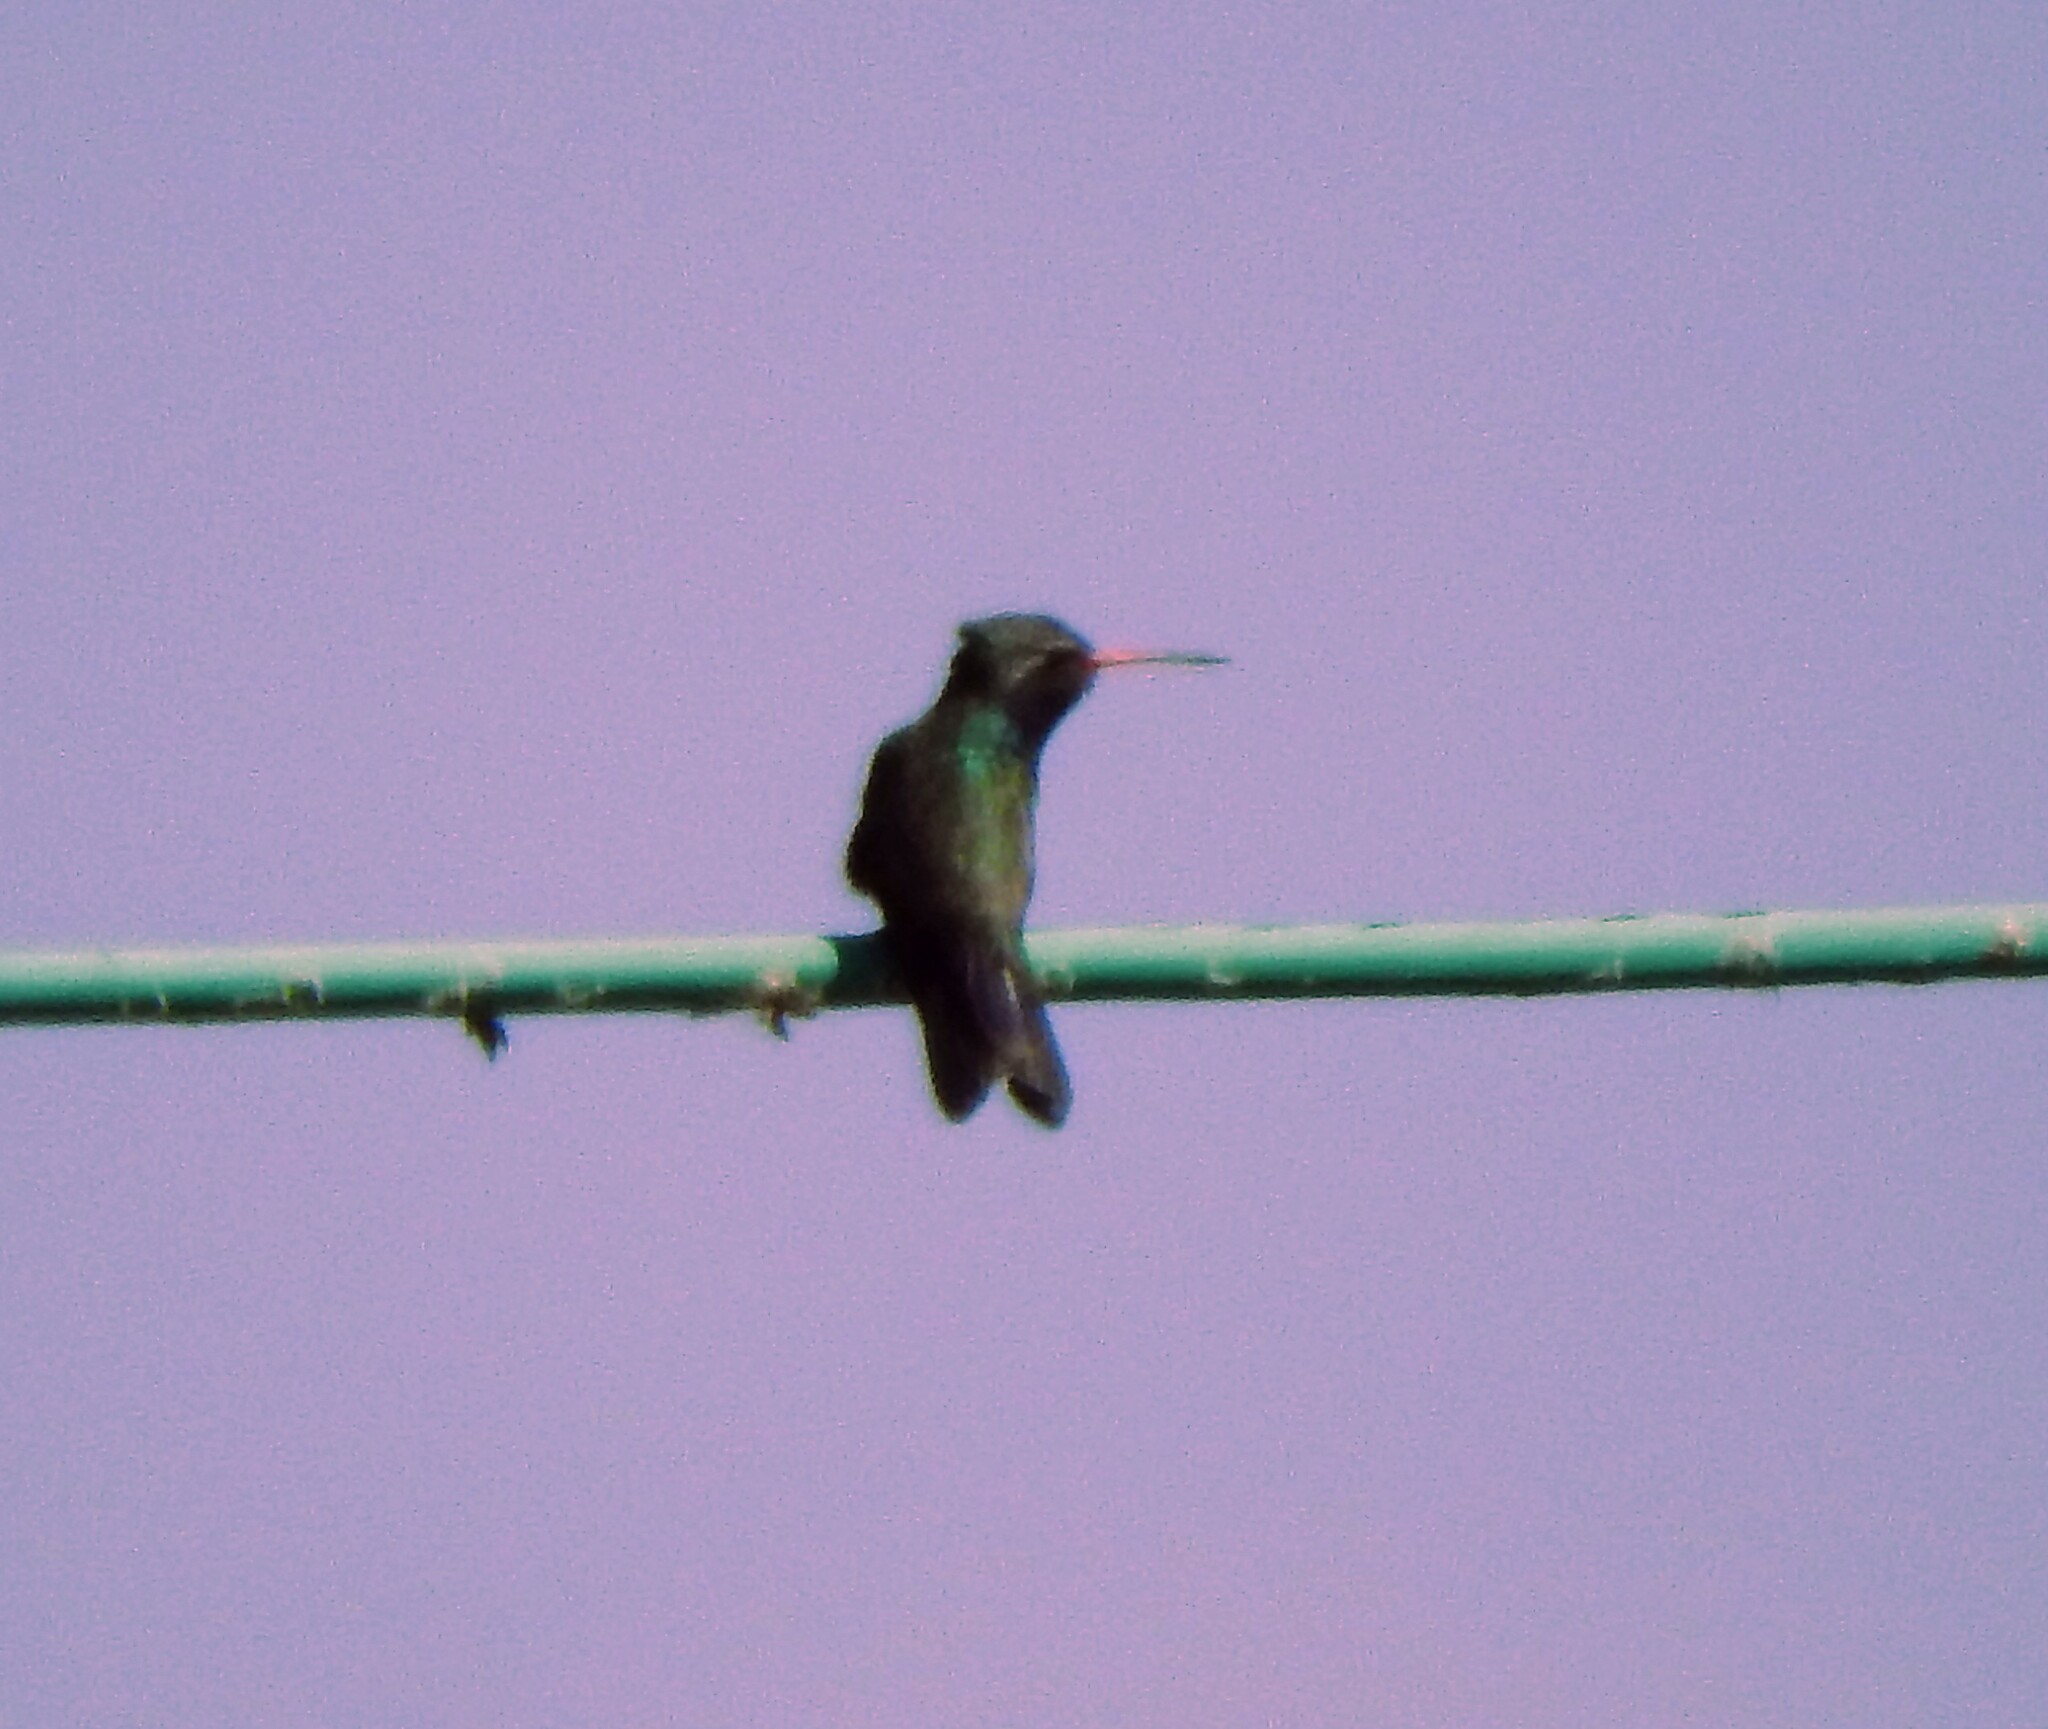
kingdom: Animalia
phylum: Chordata
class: Aves
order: Apodiformes
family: Trochilidae
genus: Cynanthus
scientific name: Cynanthus latirostris
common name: Broad-billed hummingbird
